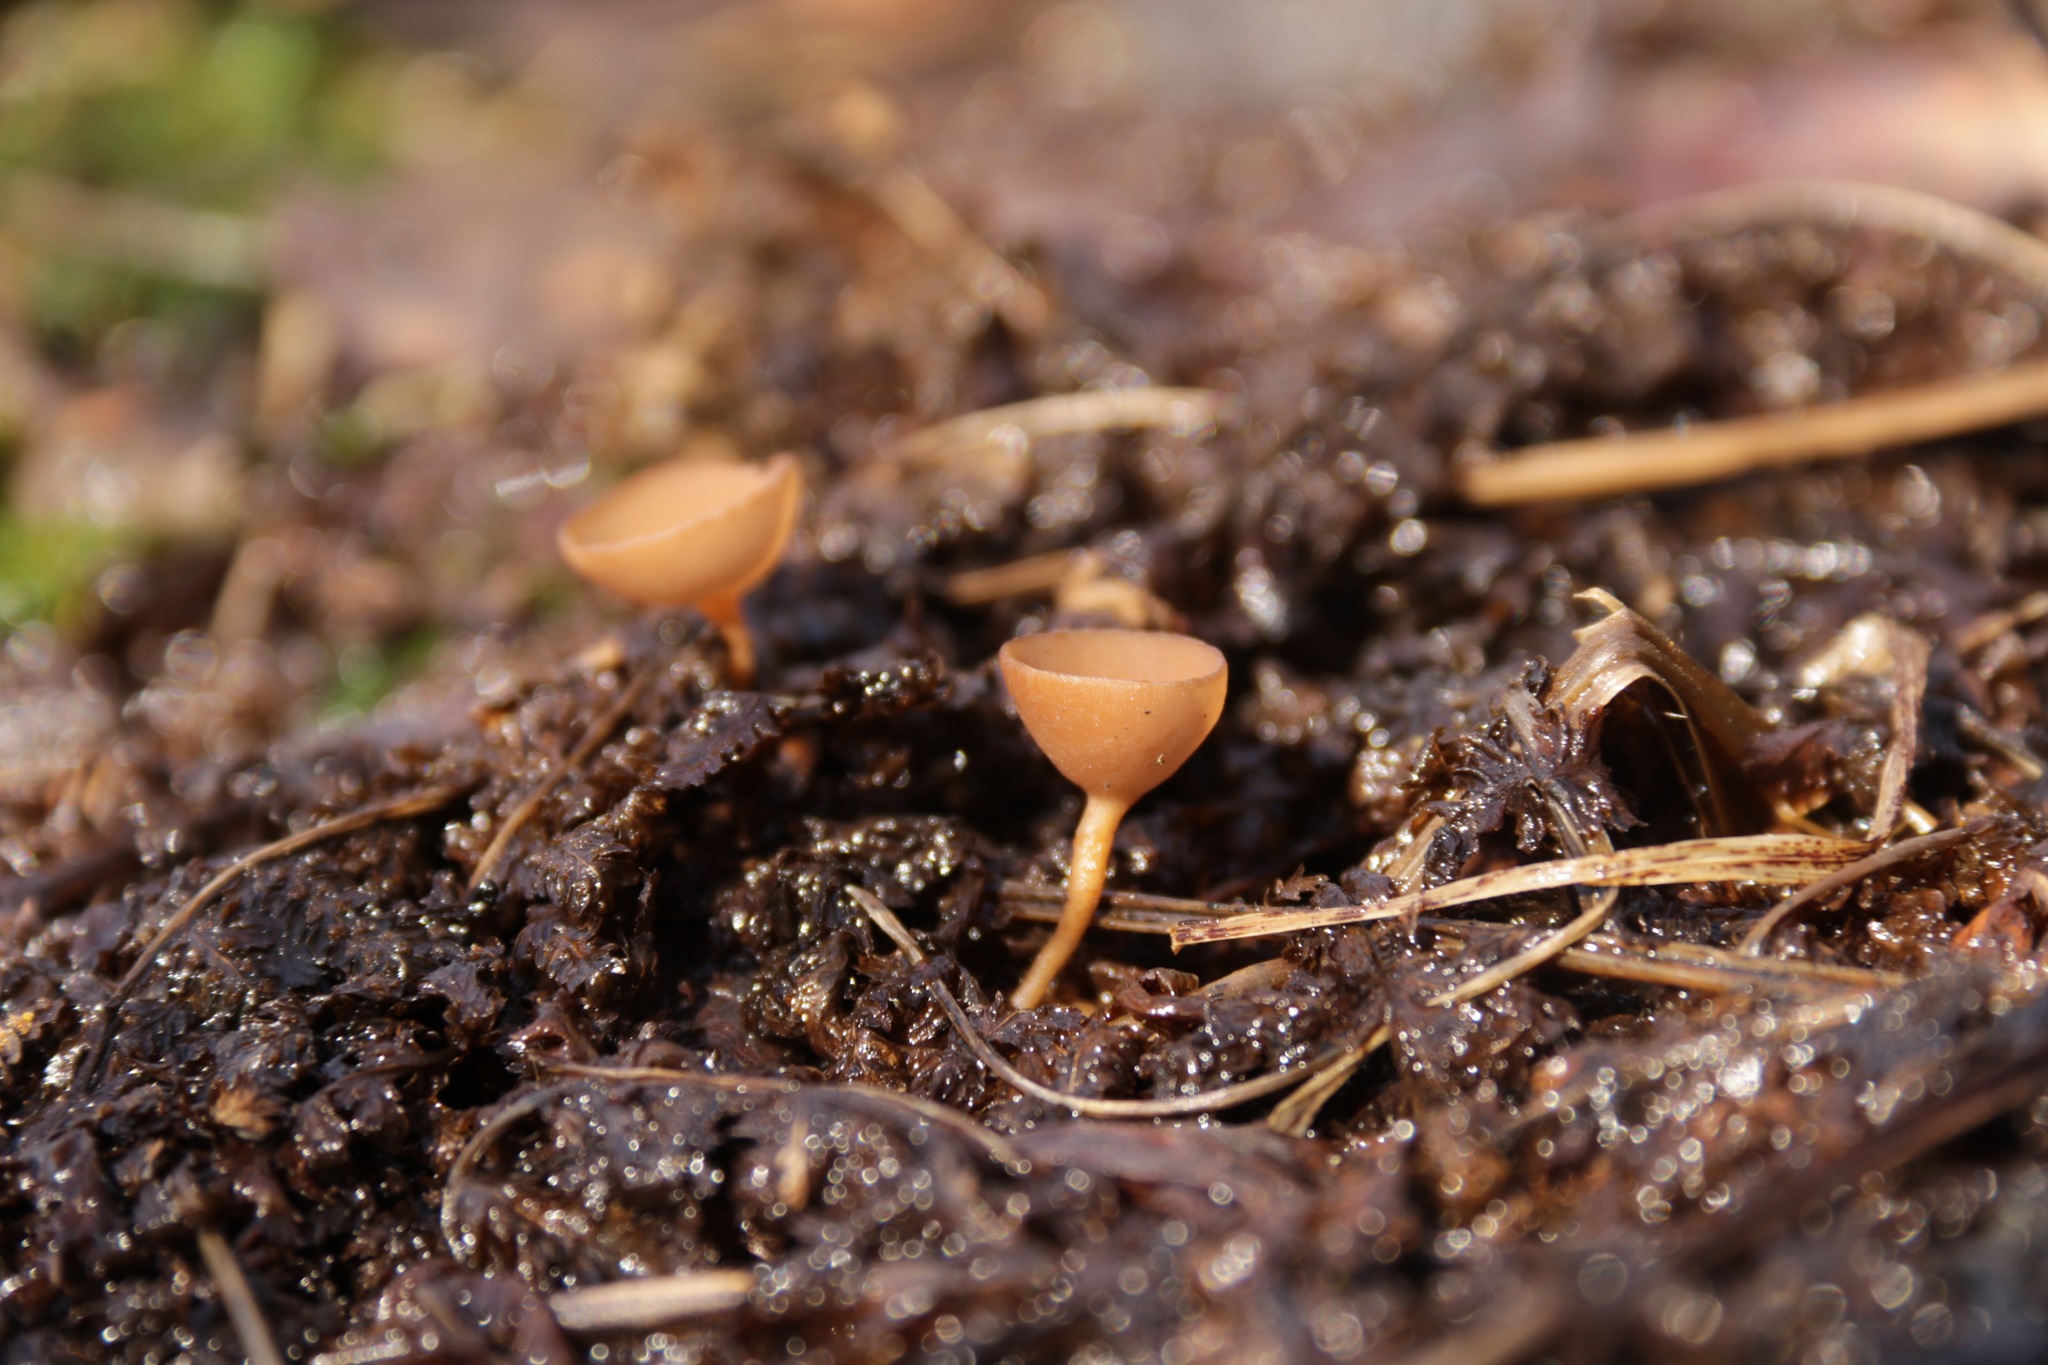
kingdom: Fungi
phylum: Ascomycota
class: Leotiomycetes
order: Helotiales
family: Sclerotiniaceae
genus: Ciboria
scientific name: Ciboria amentacea
